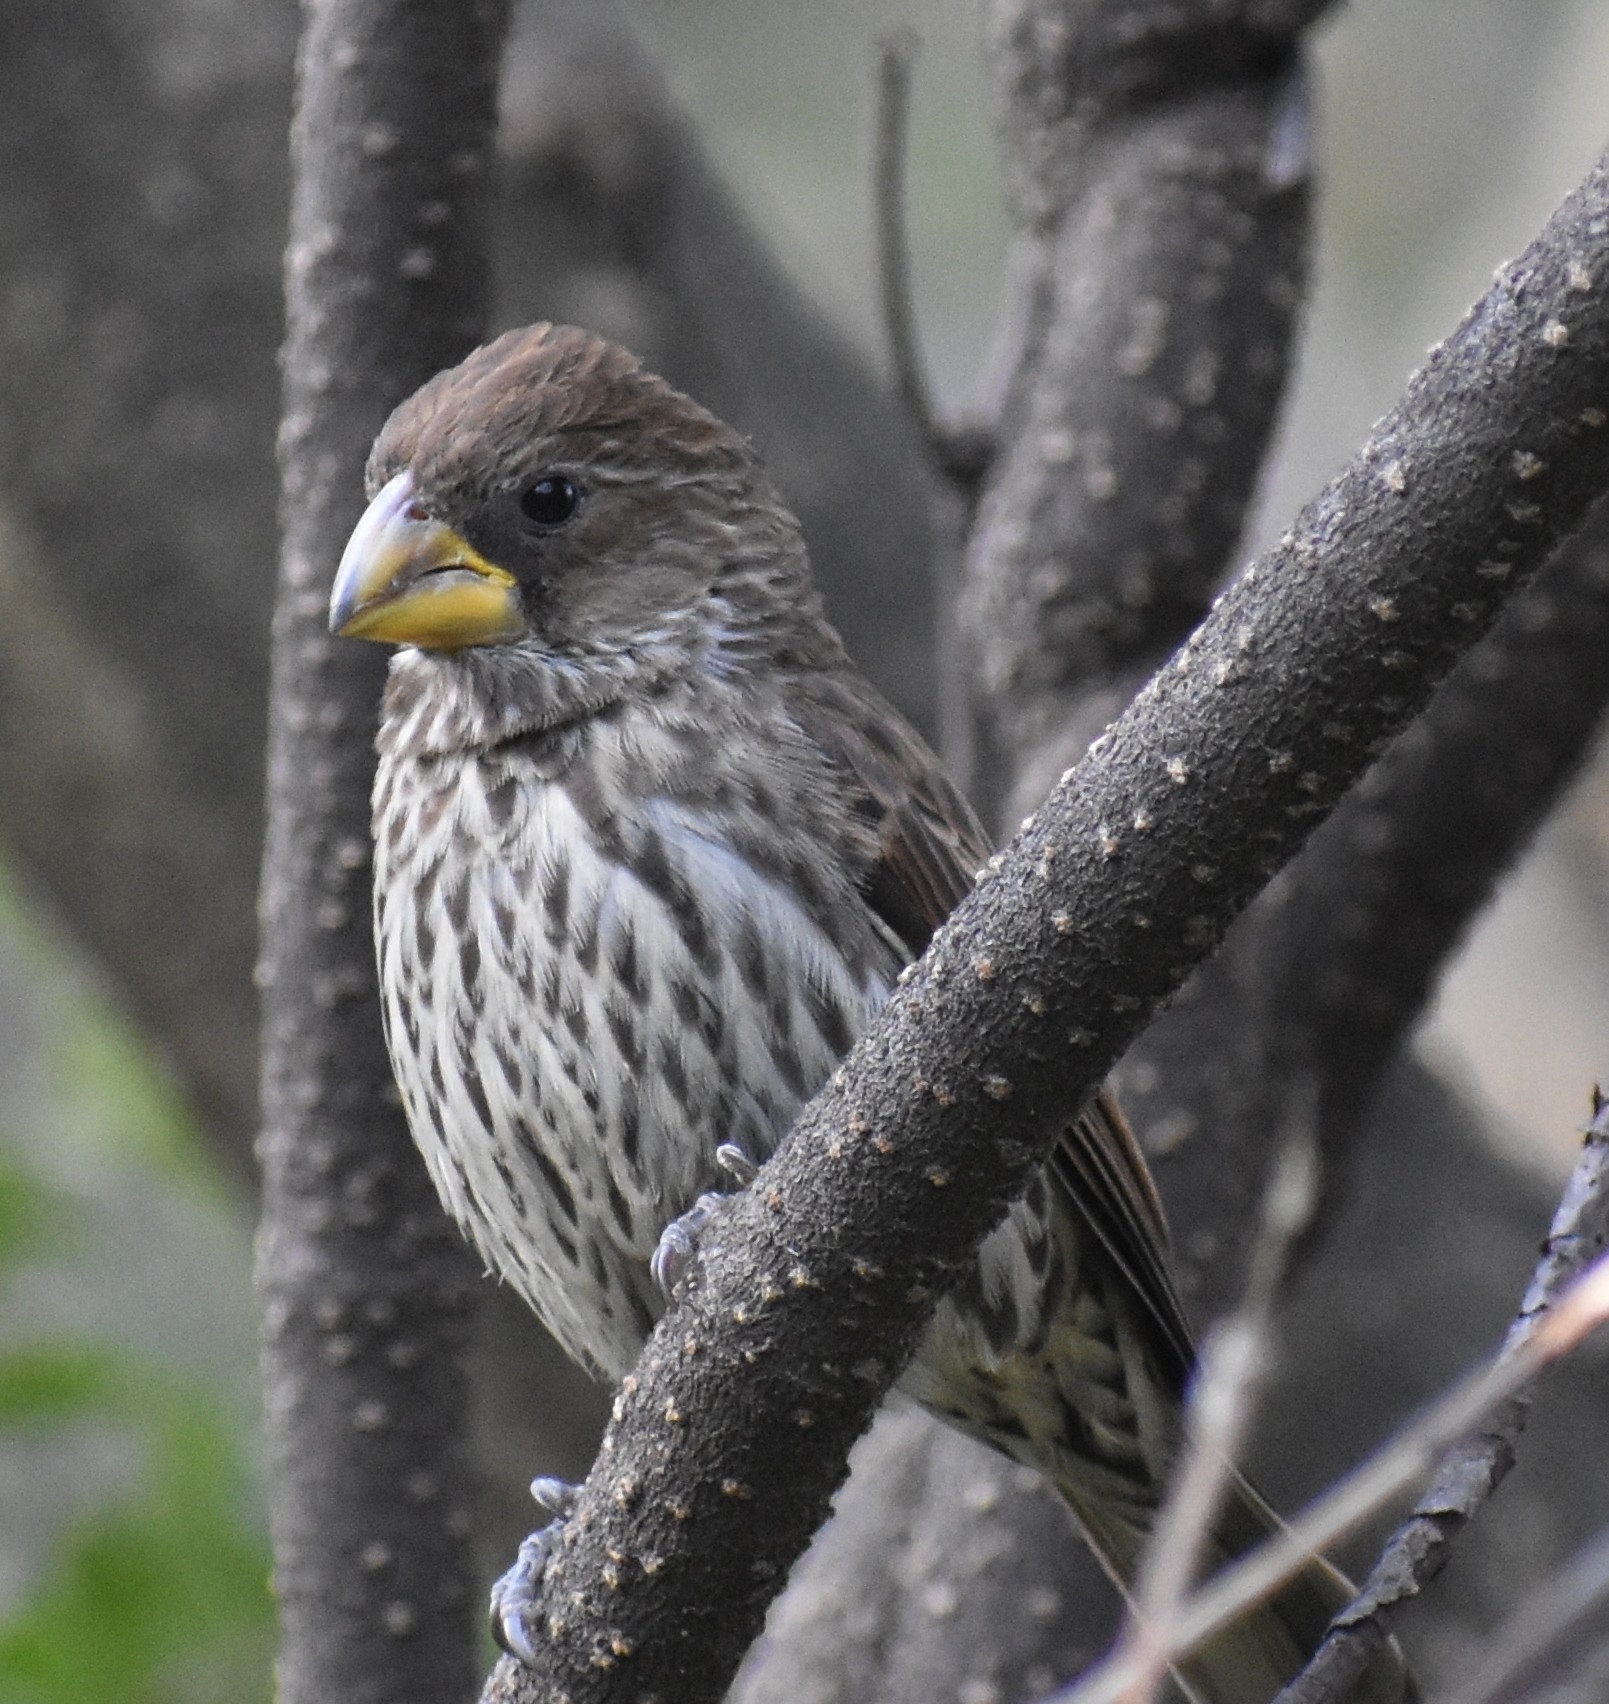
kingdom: Animalia
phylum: Chordata
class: Aves
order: Passeriformes
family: Ploceidae
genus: Amblyospiza
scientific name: Amblyospiza albifrons
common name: Thick-billed weaver
